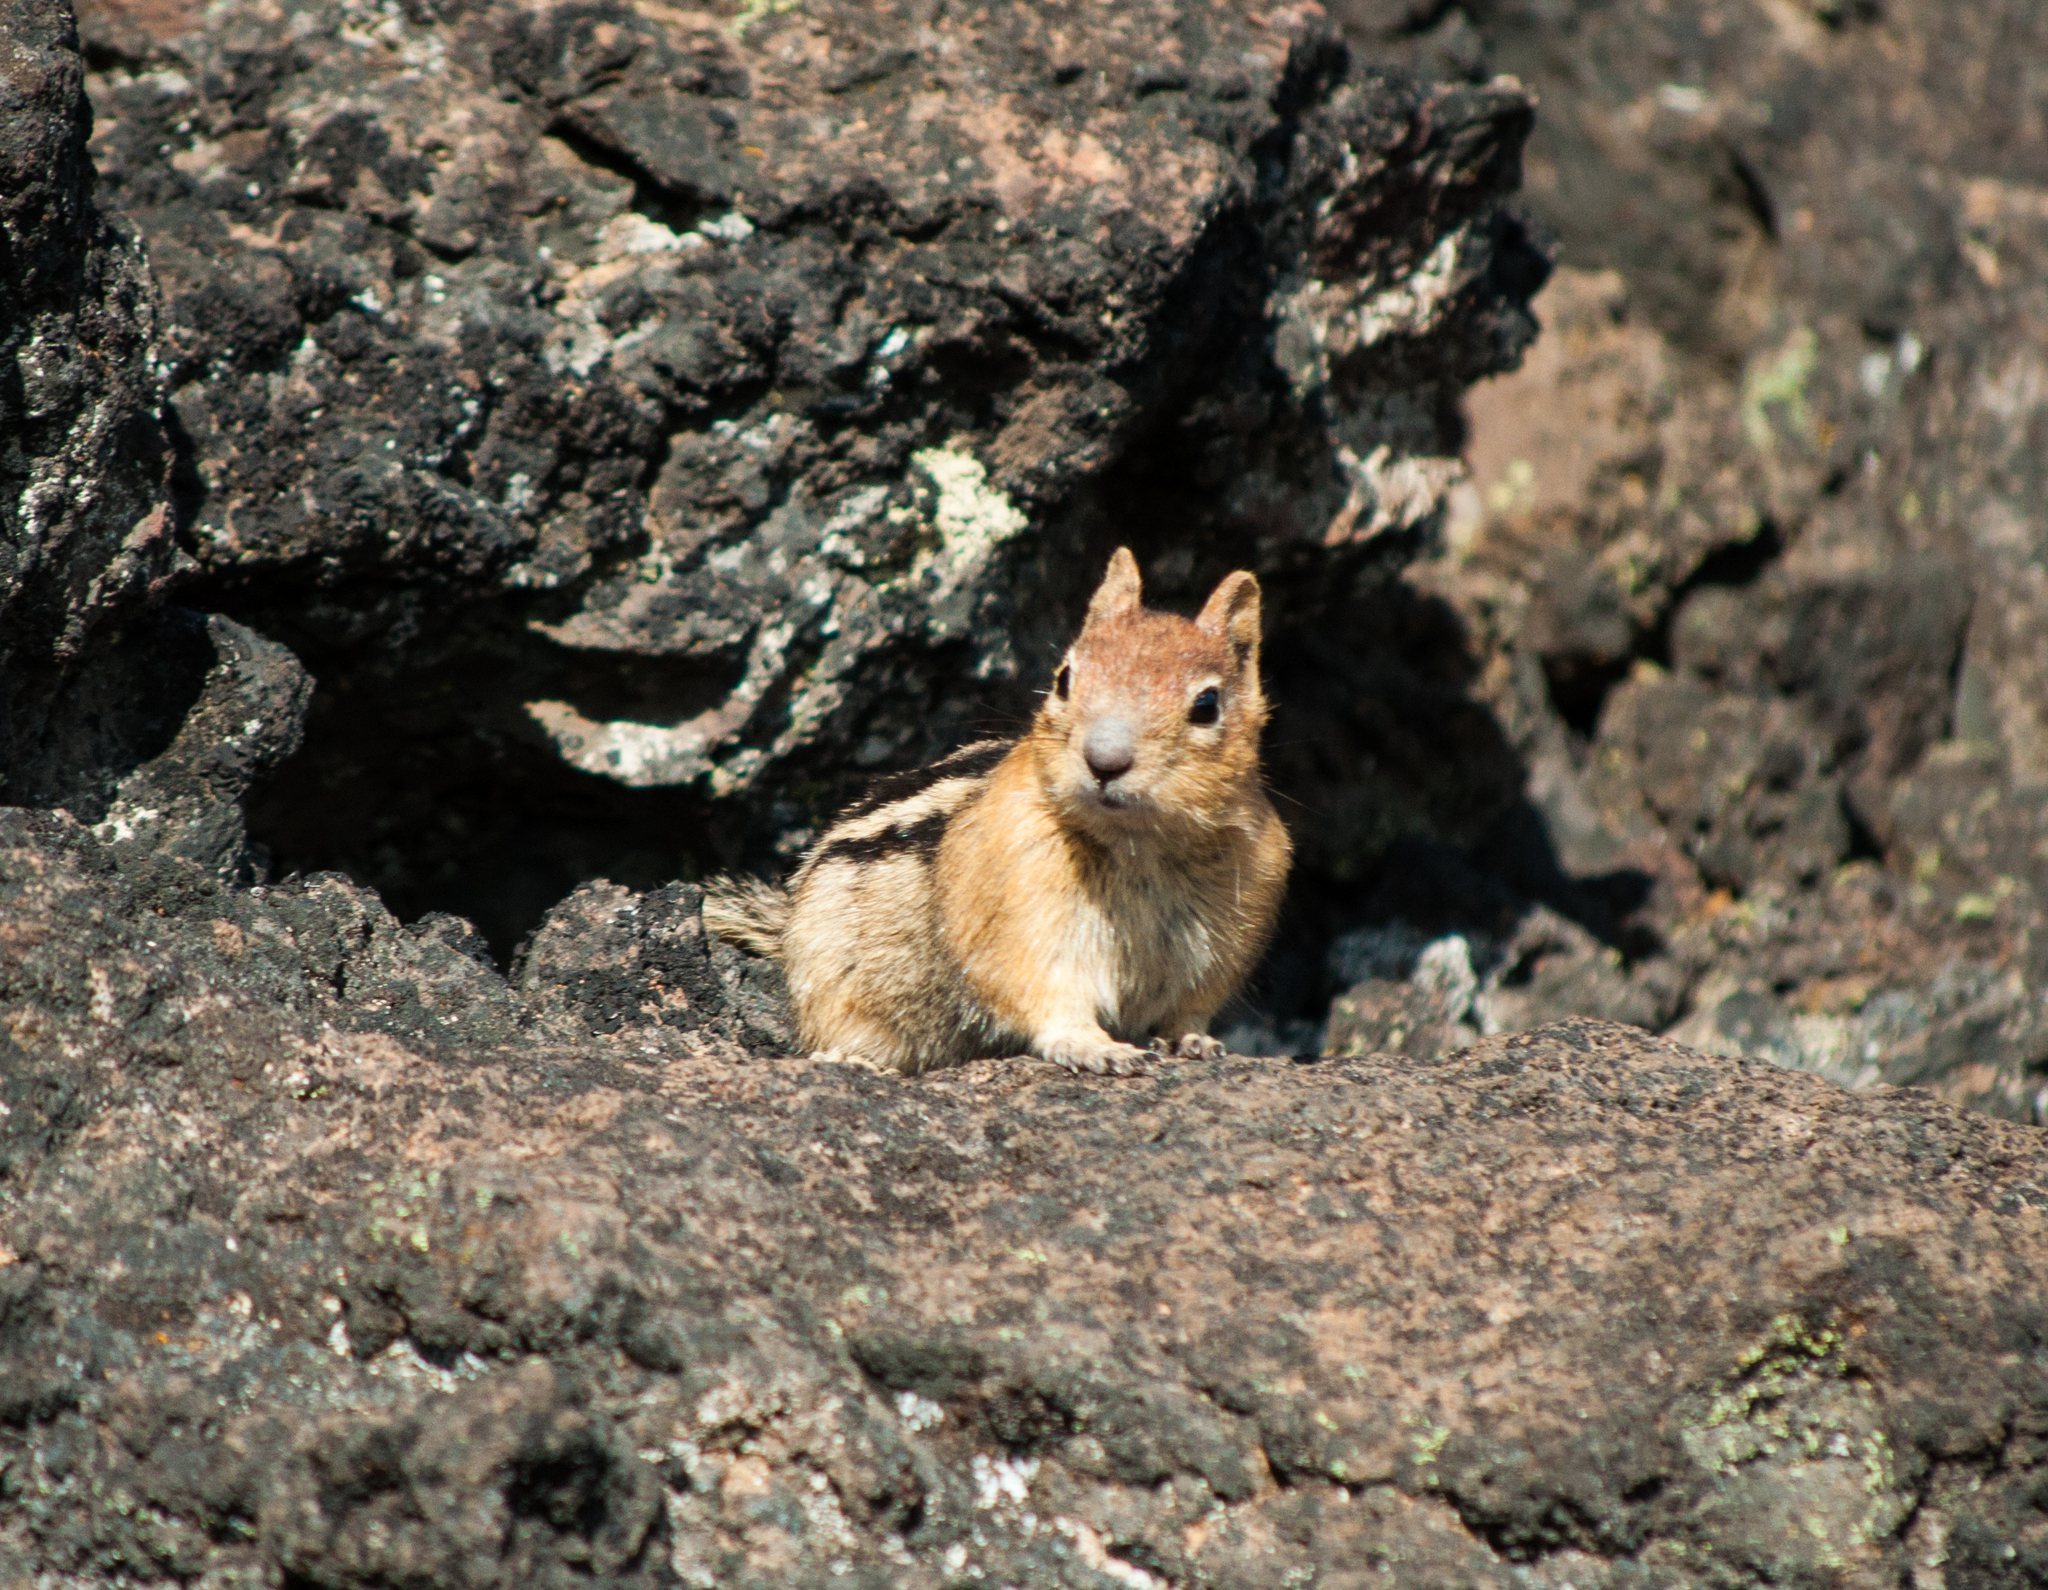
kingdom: Animalia
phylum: Chordata
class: Mammalia
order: Rodentia
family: Sciuridae
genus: Callospermophilus
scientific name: Callospermophilus lateralis
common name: Golden-mantled ground squirrel
